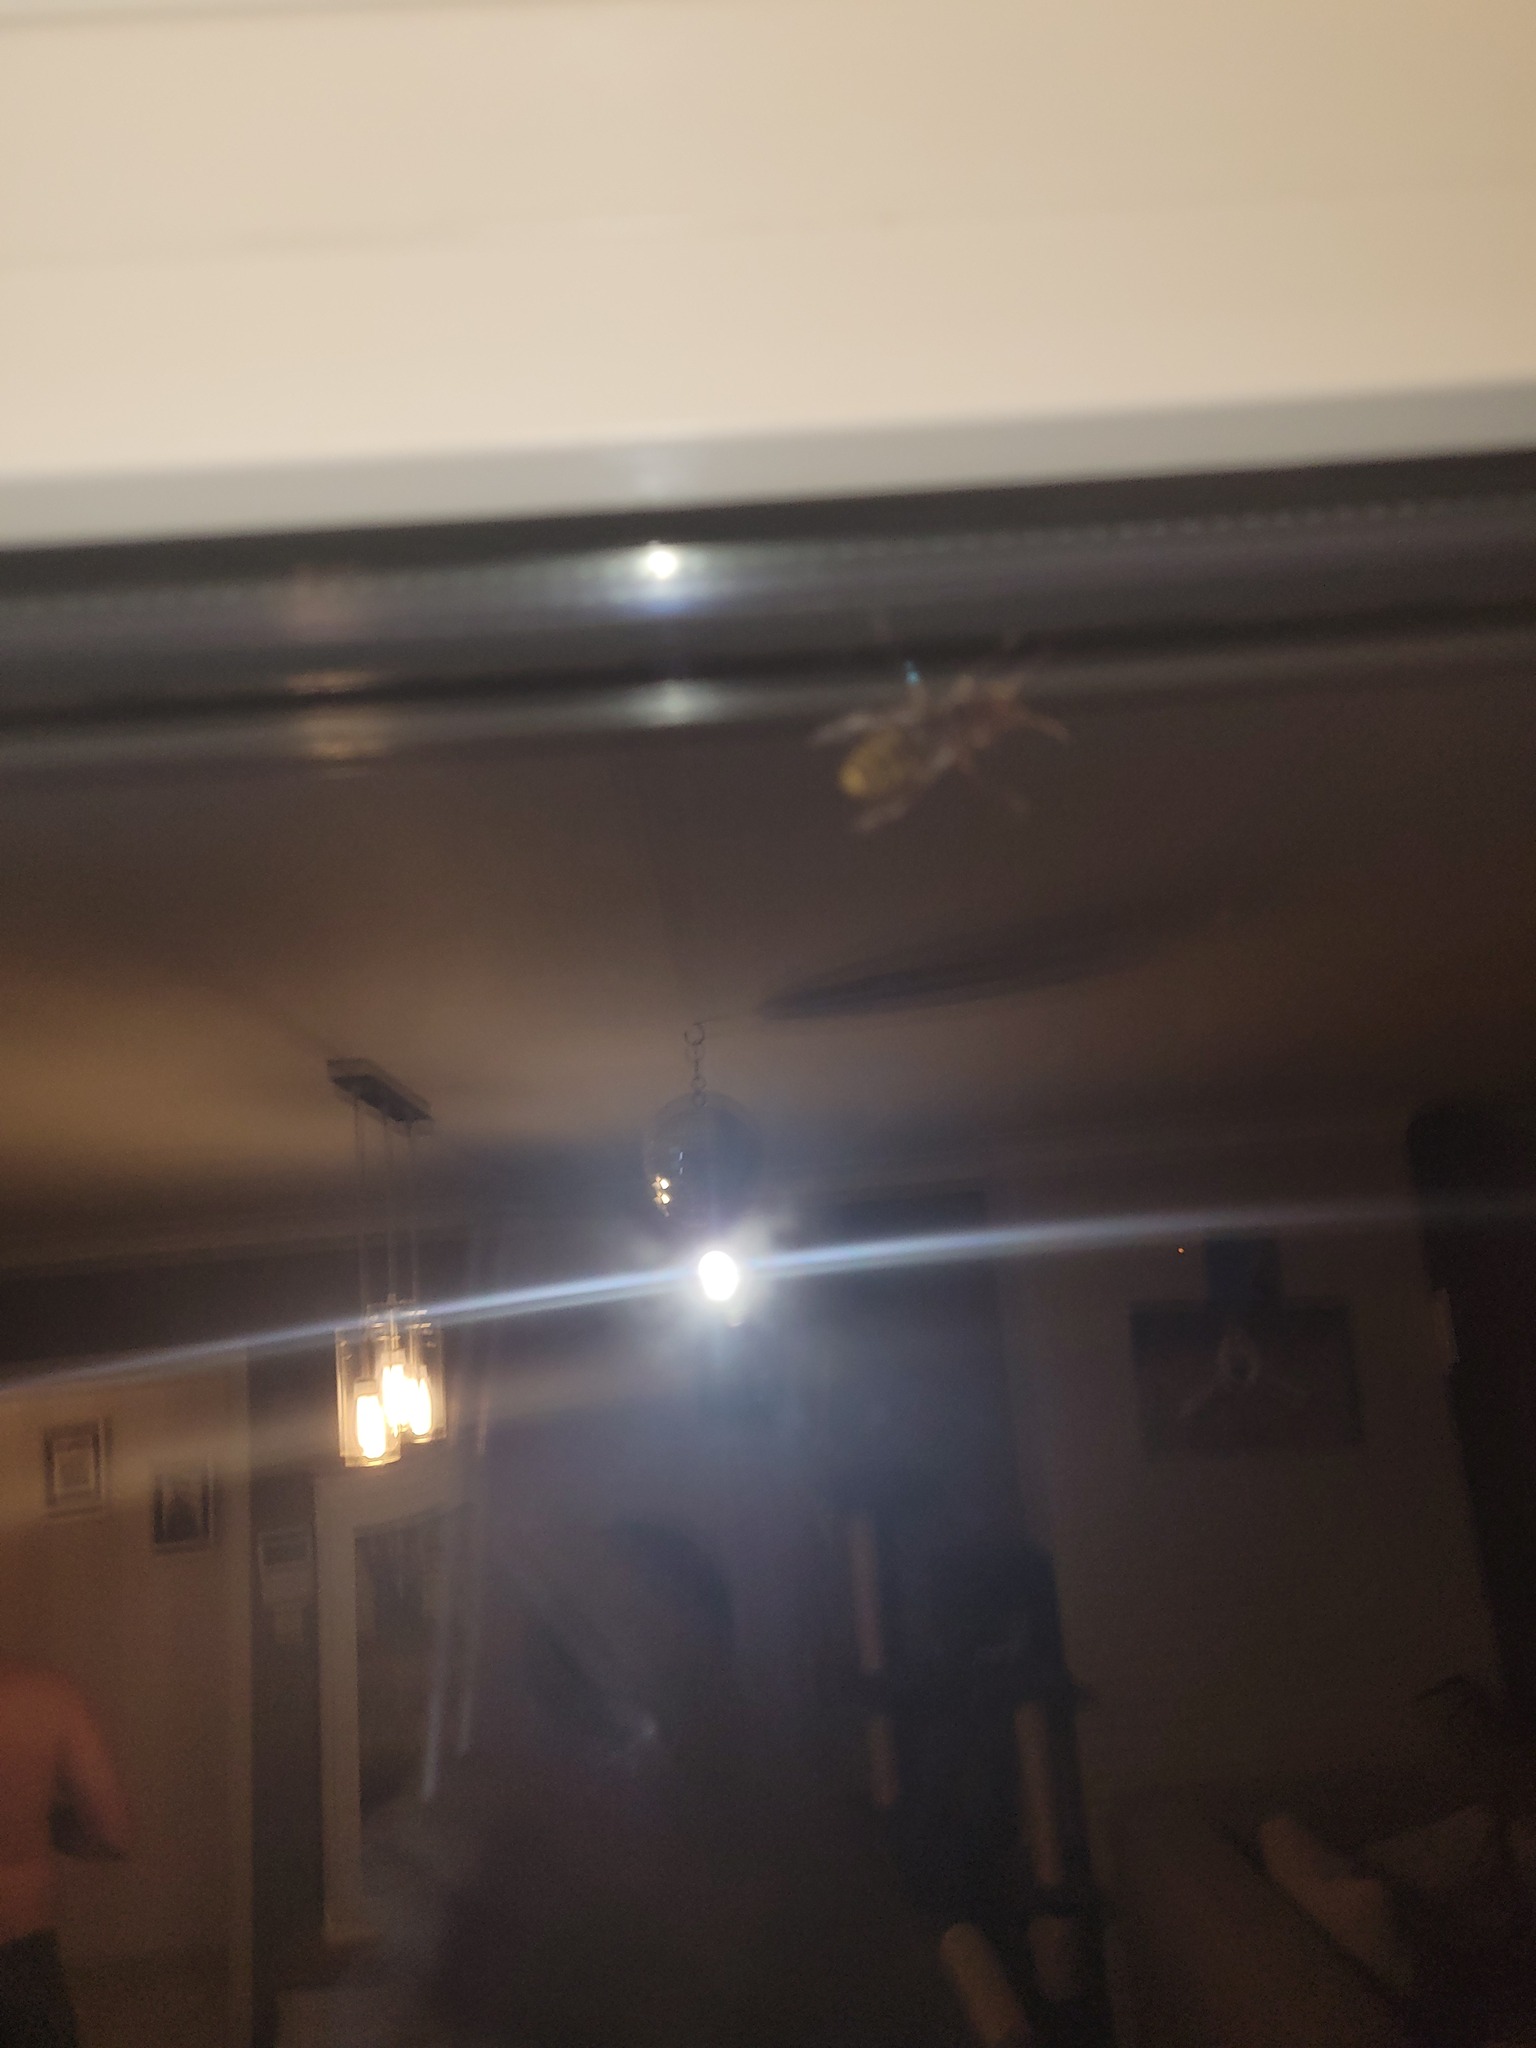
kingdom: Animalia
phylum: Arthropoda
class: Insecta
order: Hymenoptera
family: Vespidae
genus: Vespa
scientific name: Vespa crabro
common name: Hornet
